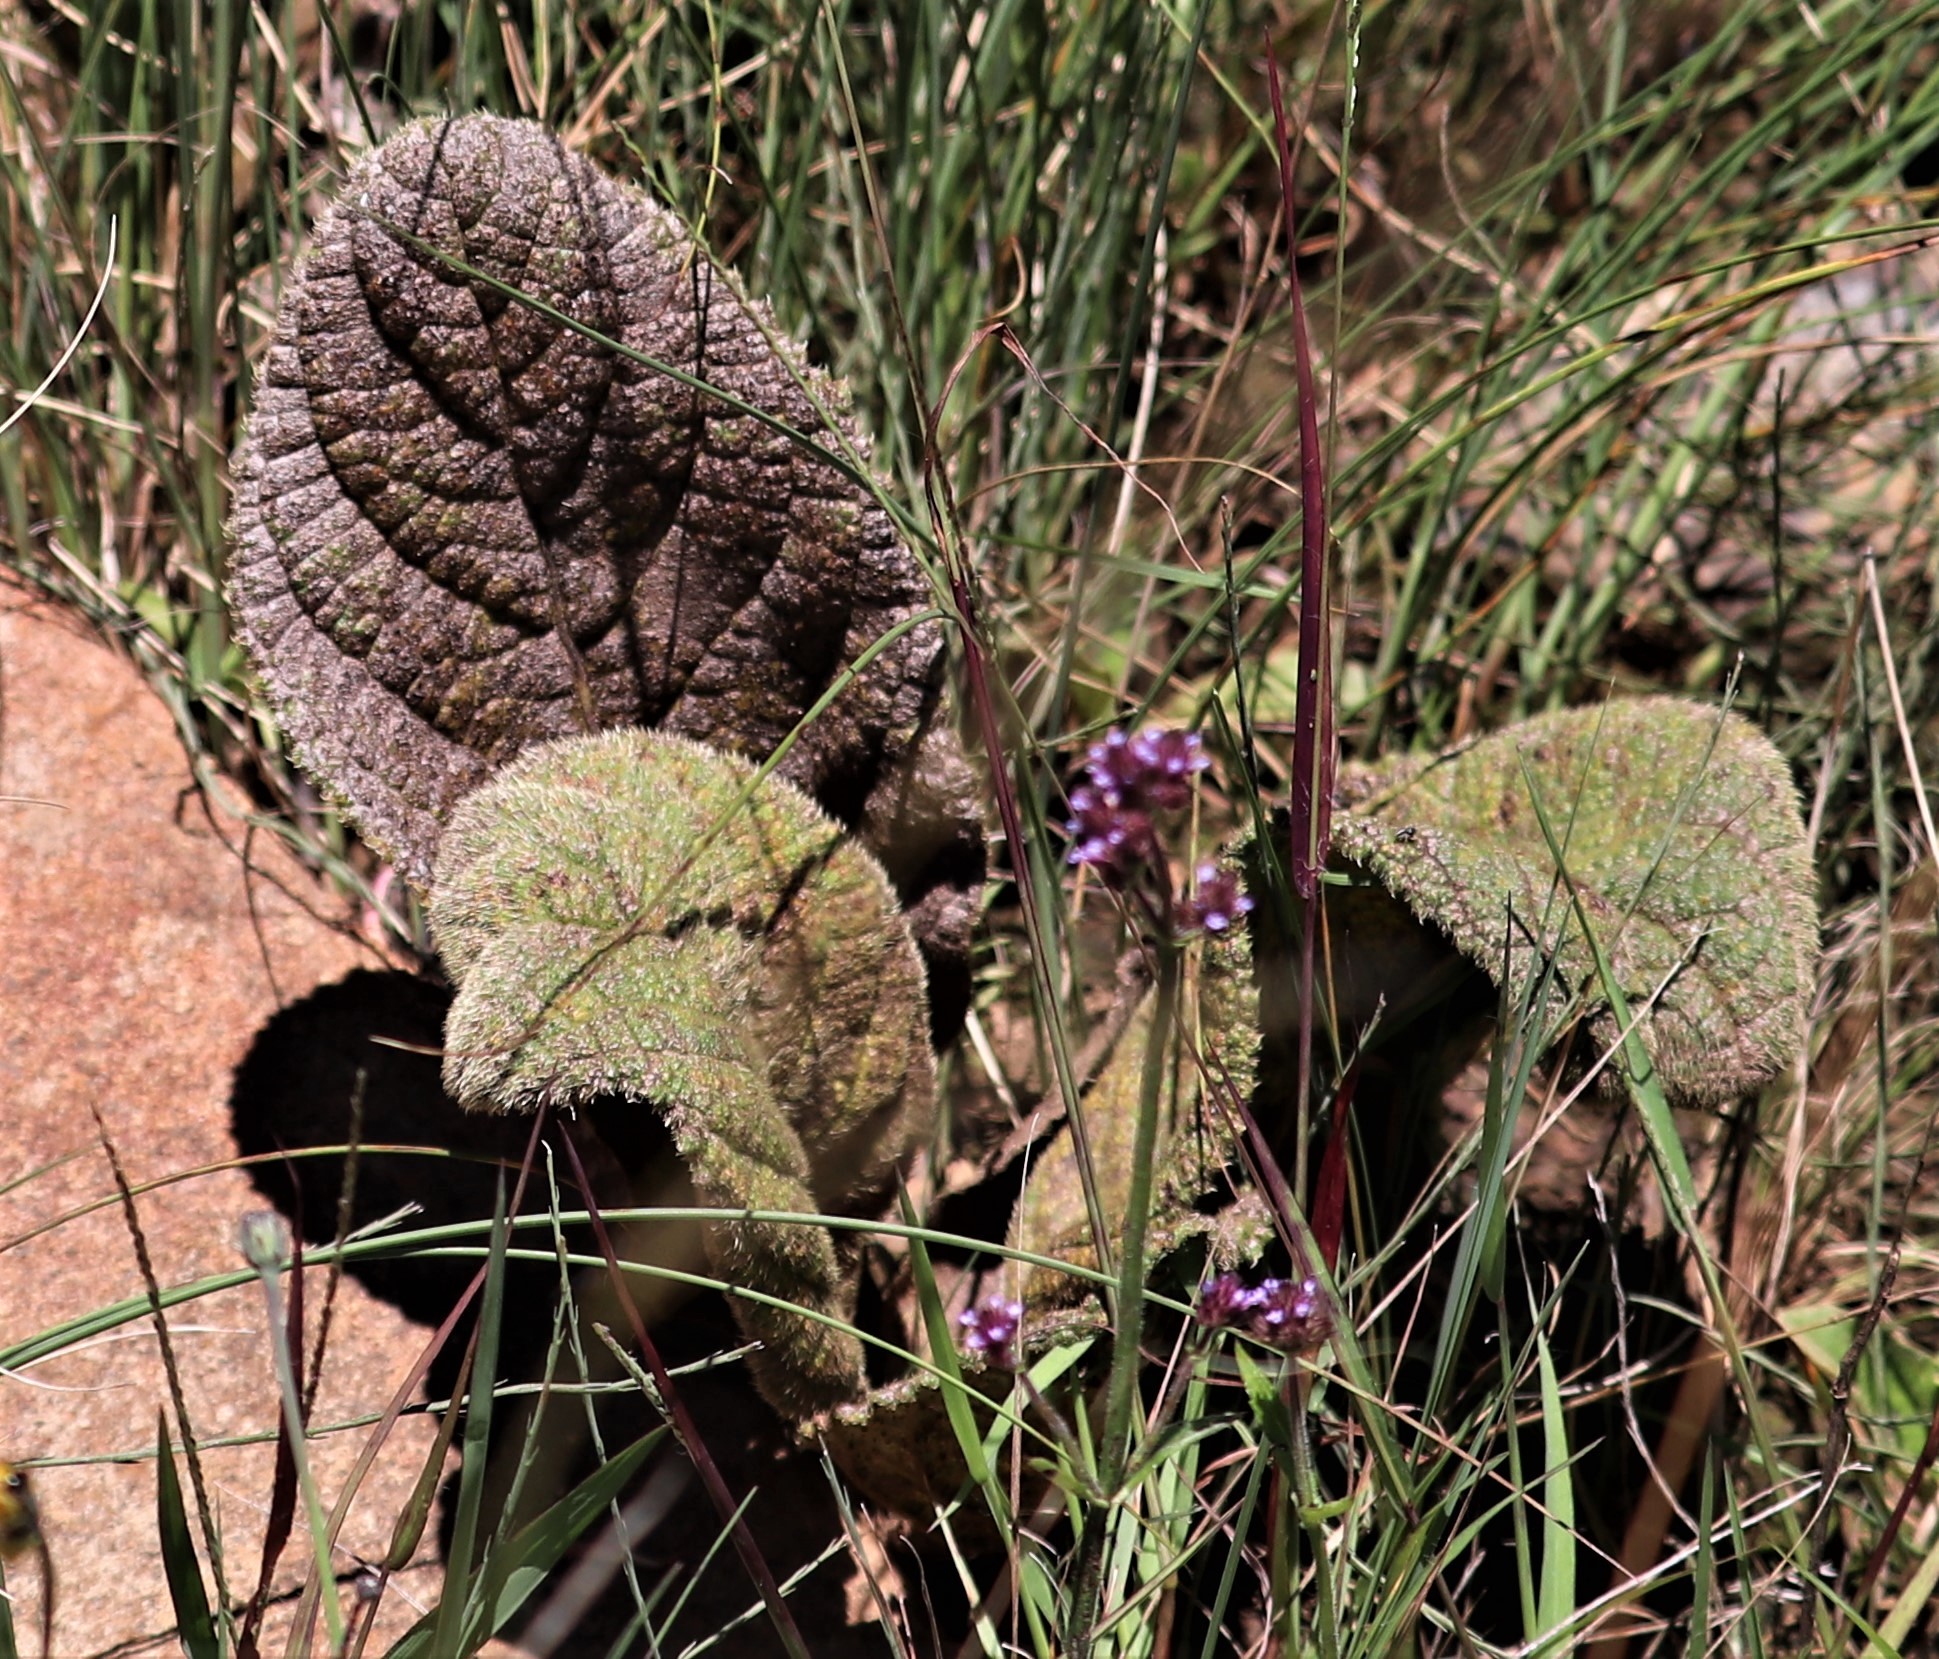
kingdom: Plantae
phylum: Tracheophyta
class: Magnoliopsida
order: Asterales
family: Asteraceae
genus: Berkheya
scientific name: Berkheya setifera
